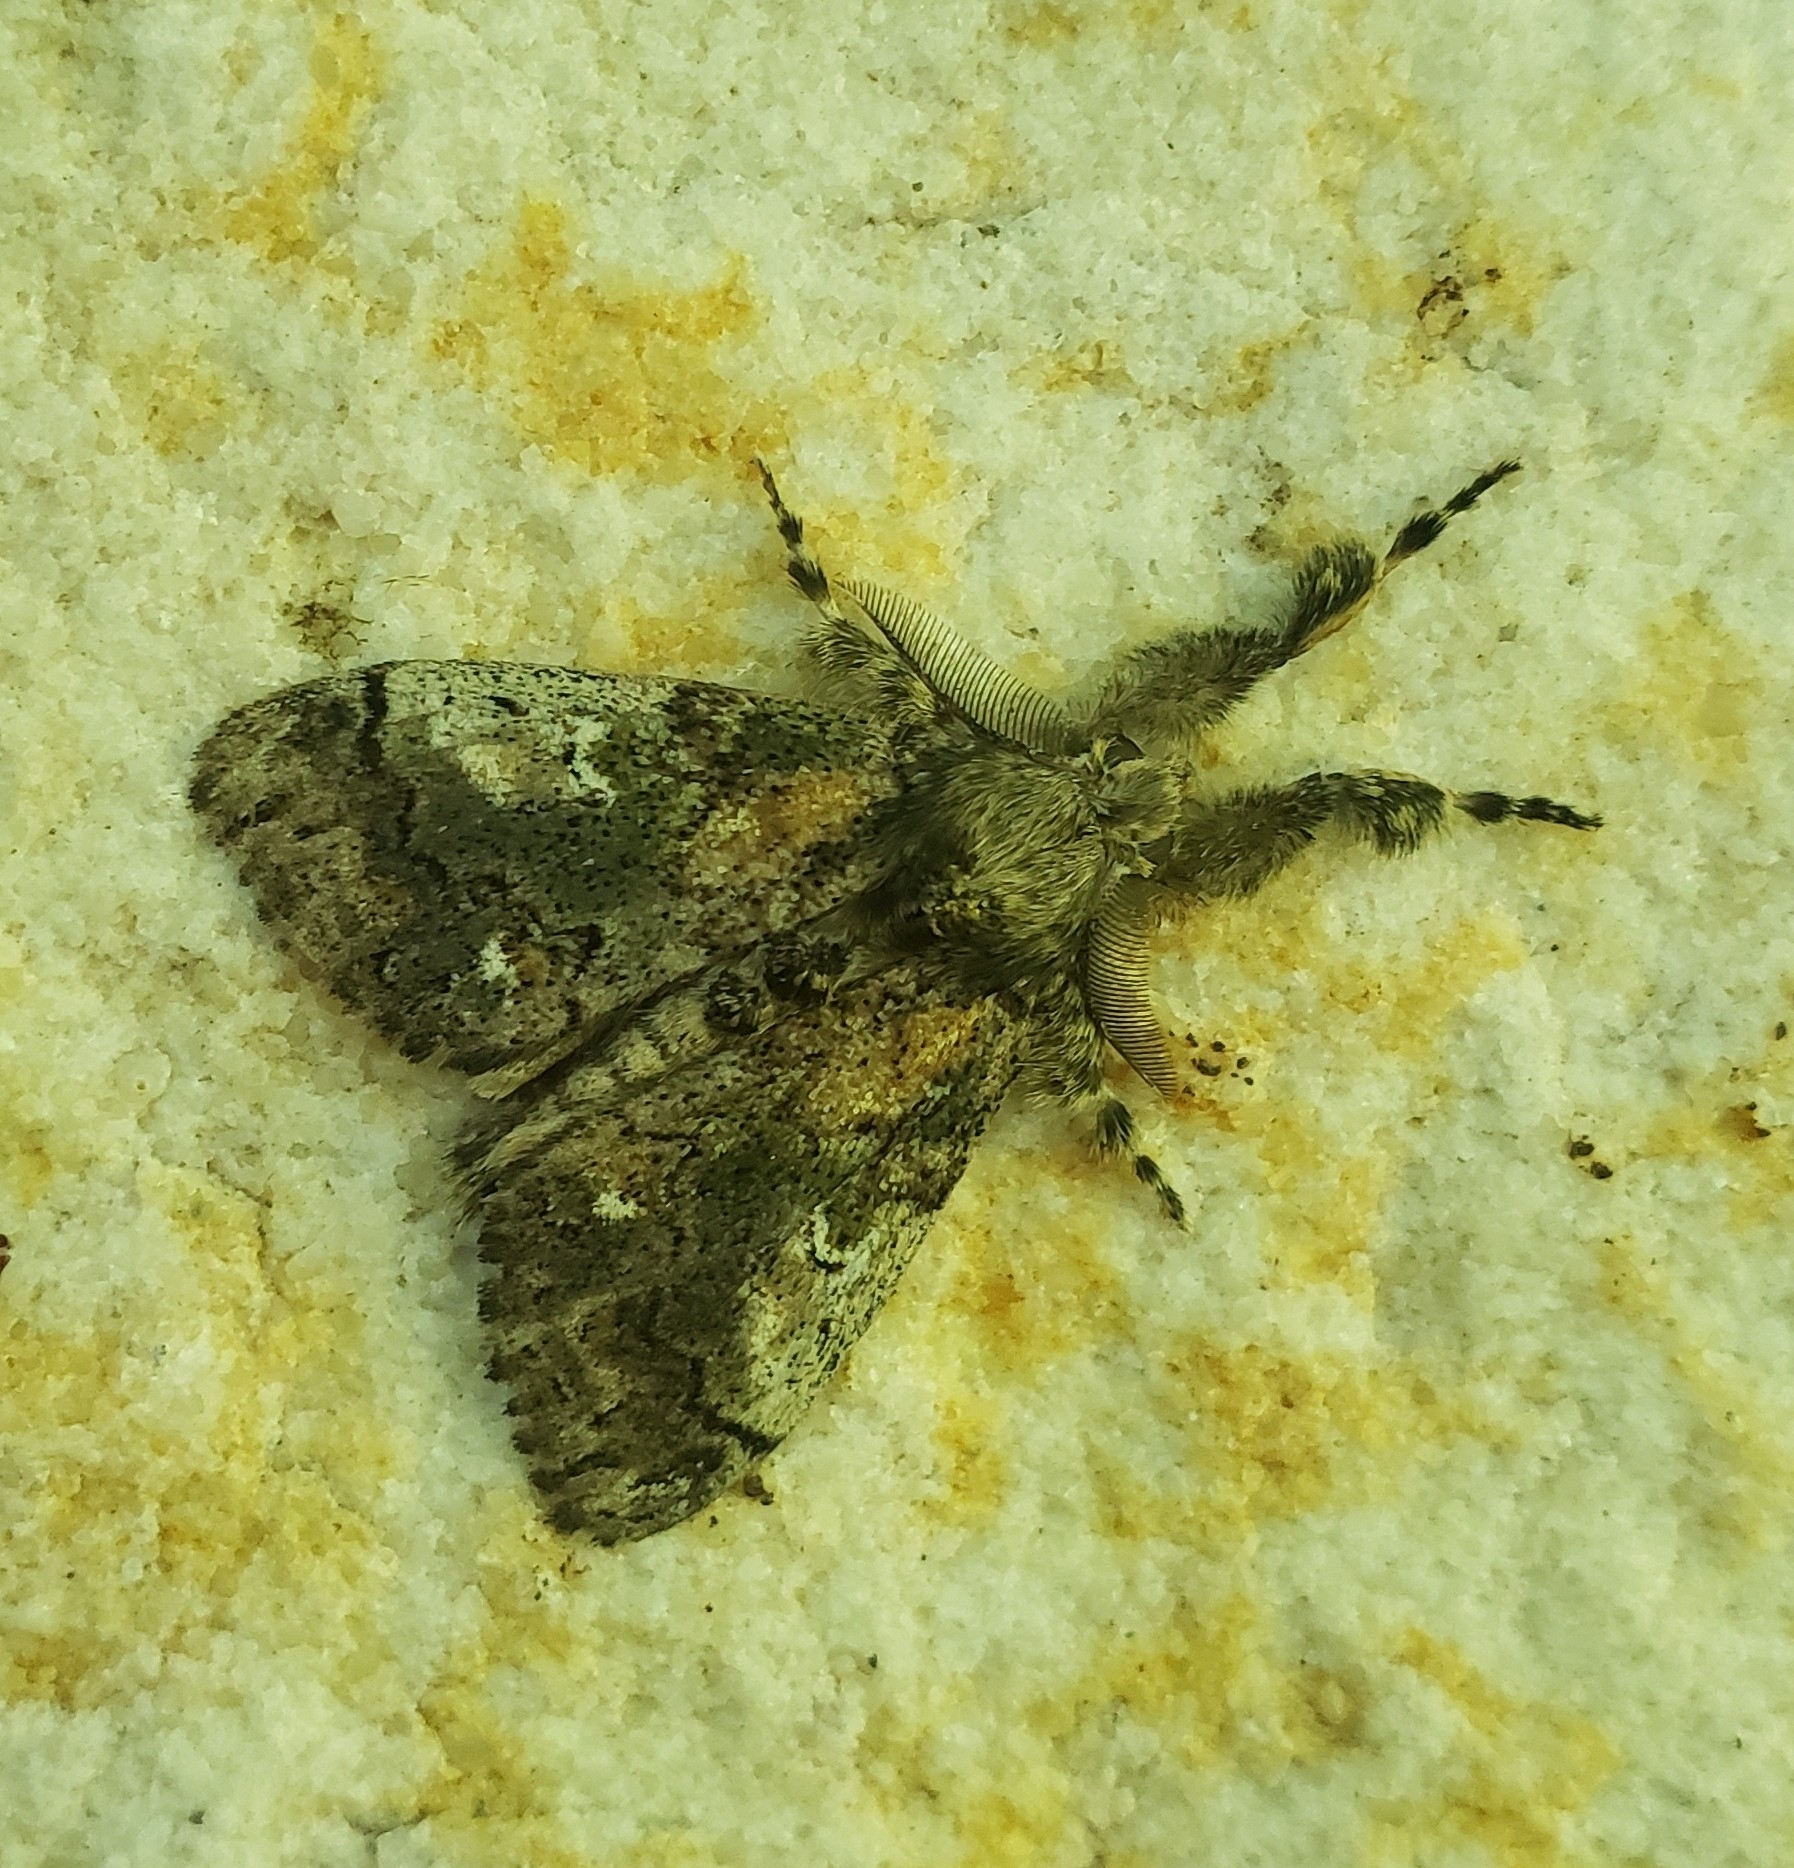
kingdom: Animalia
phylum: Arthropoda
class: Insecta
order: Lepidoptera
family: Erebidae
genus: Dasychira
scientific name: Dasychira basiflava
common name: Yellow-based tussock moth
